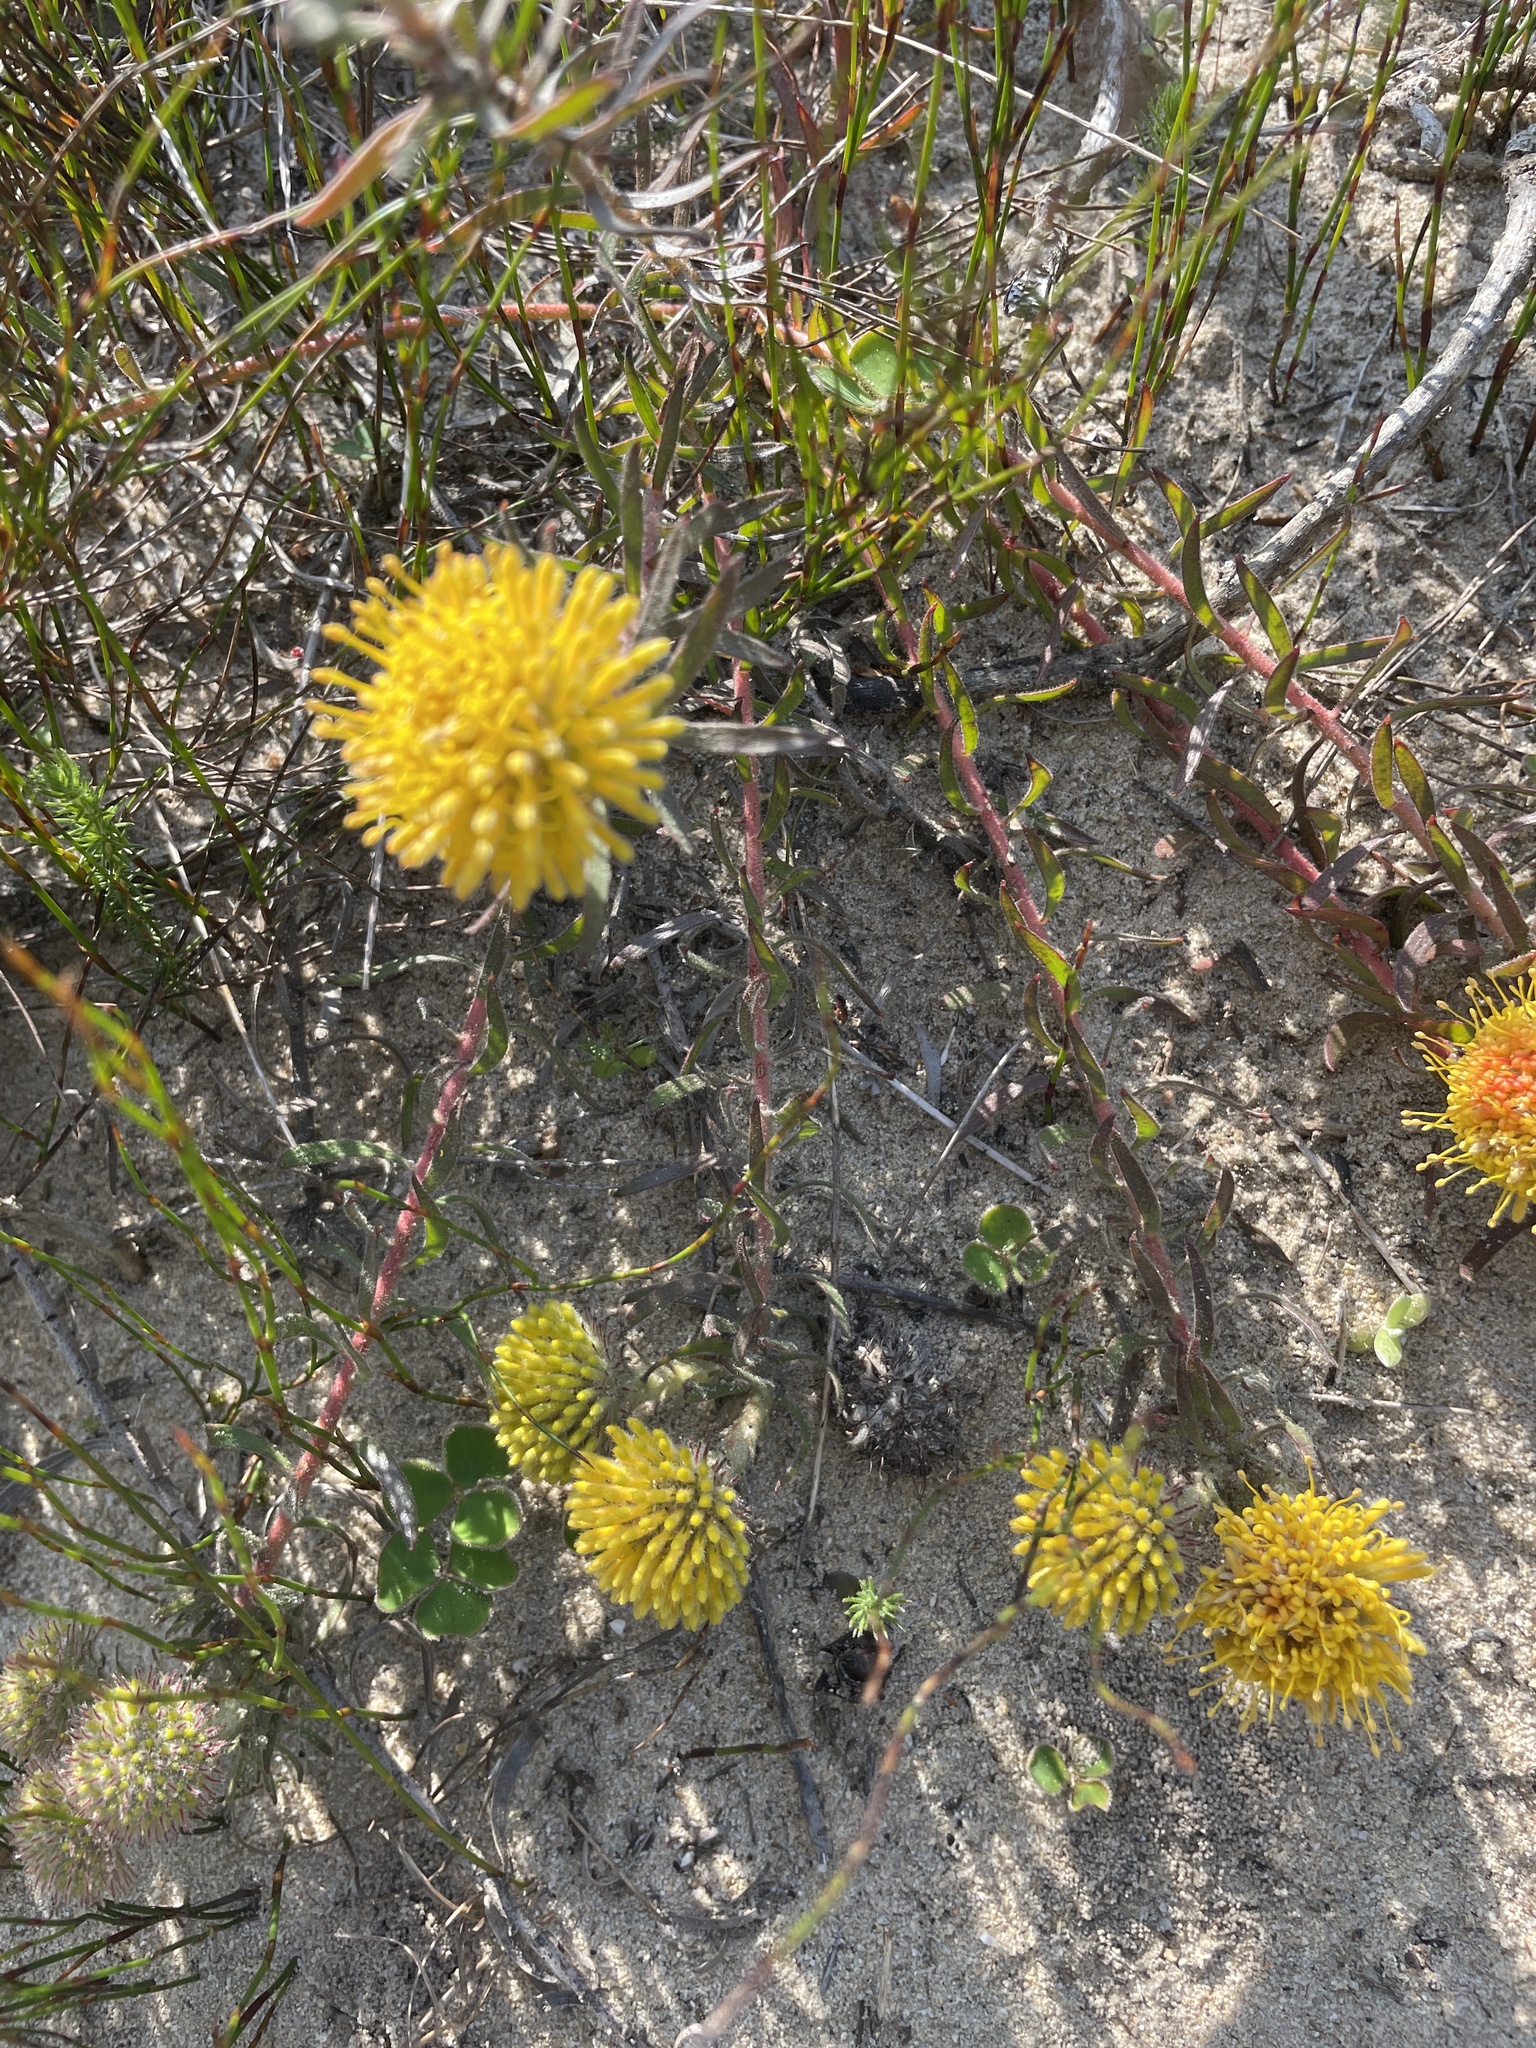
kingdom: Plantae
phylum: Tracheophyta
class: Magnoliopsida
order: Proteales
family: Proteaceae
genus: Leucospermum
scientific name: Leucospermum prostratum
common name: Yellow-trailing pincushion
